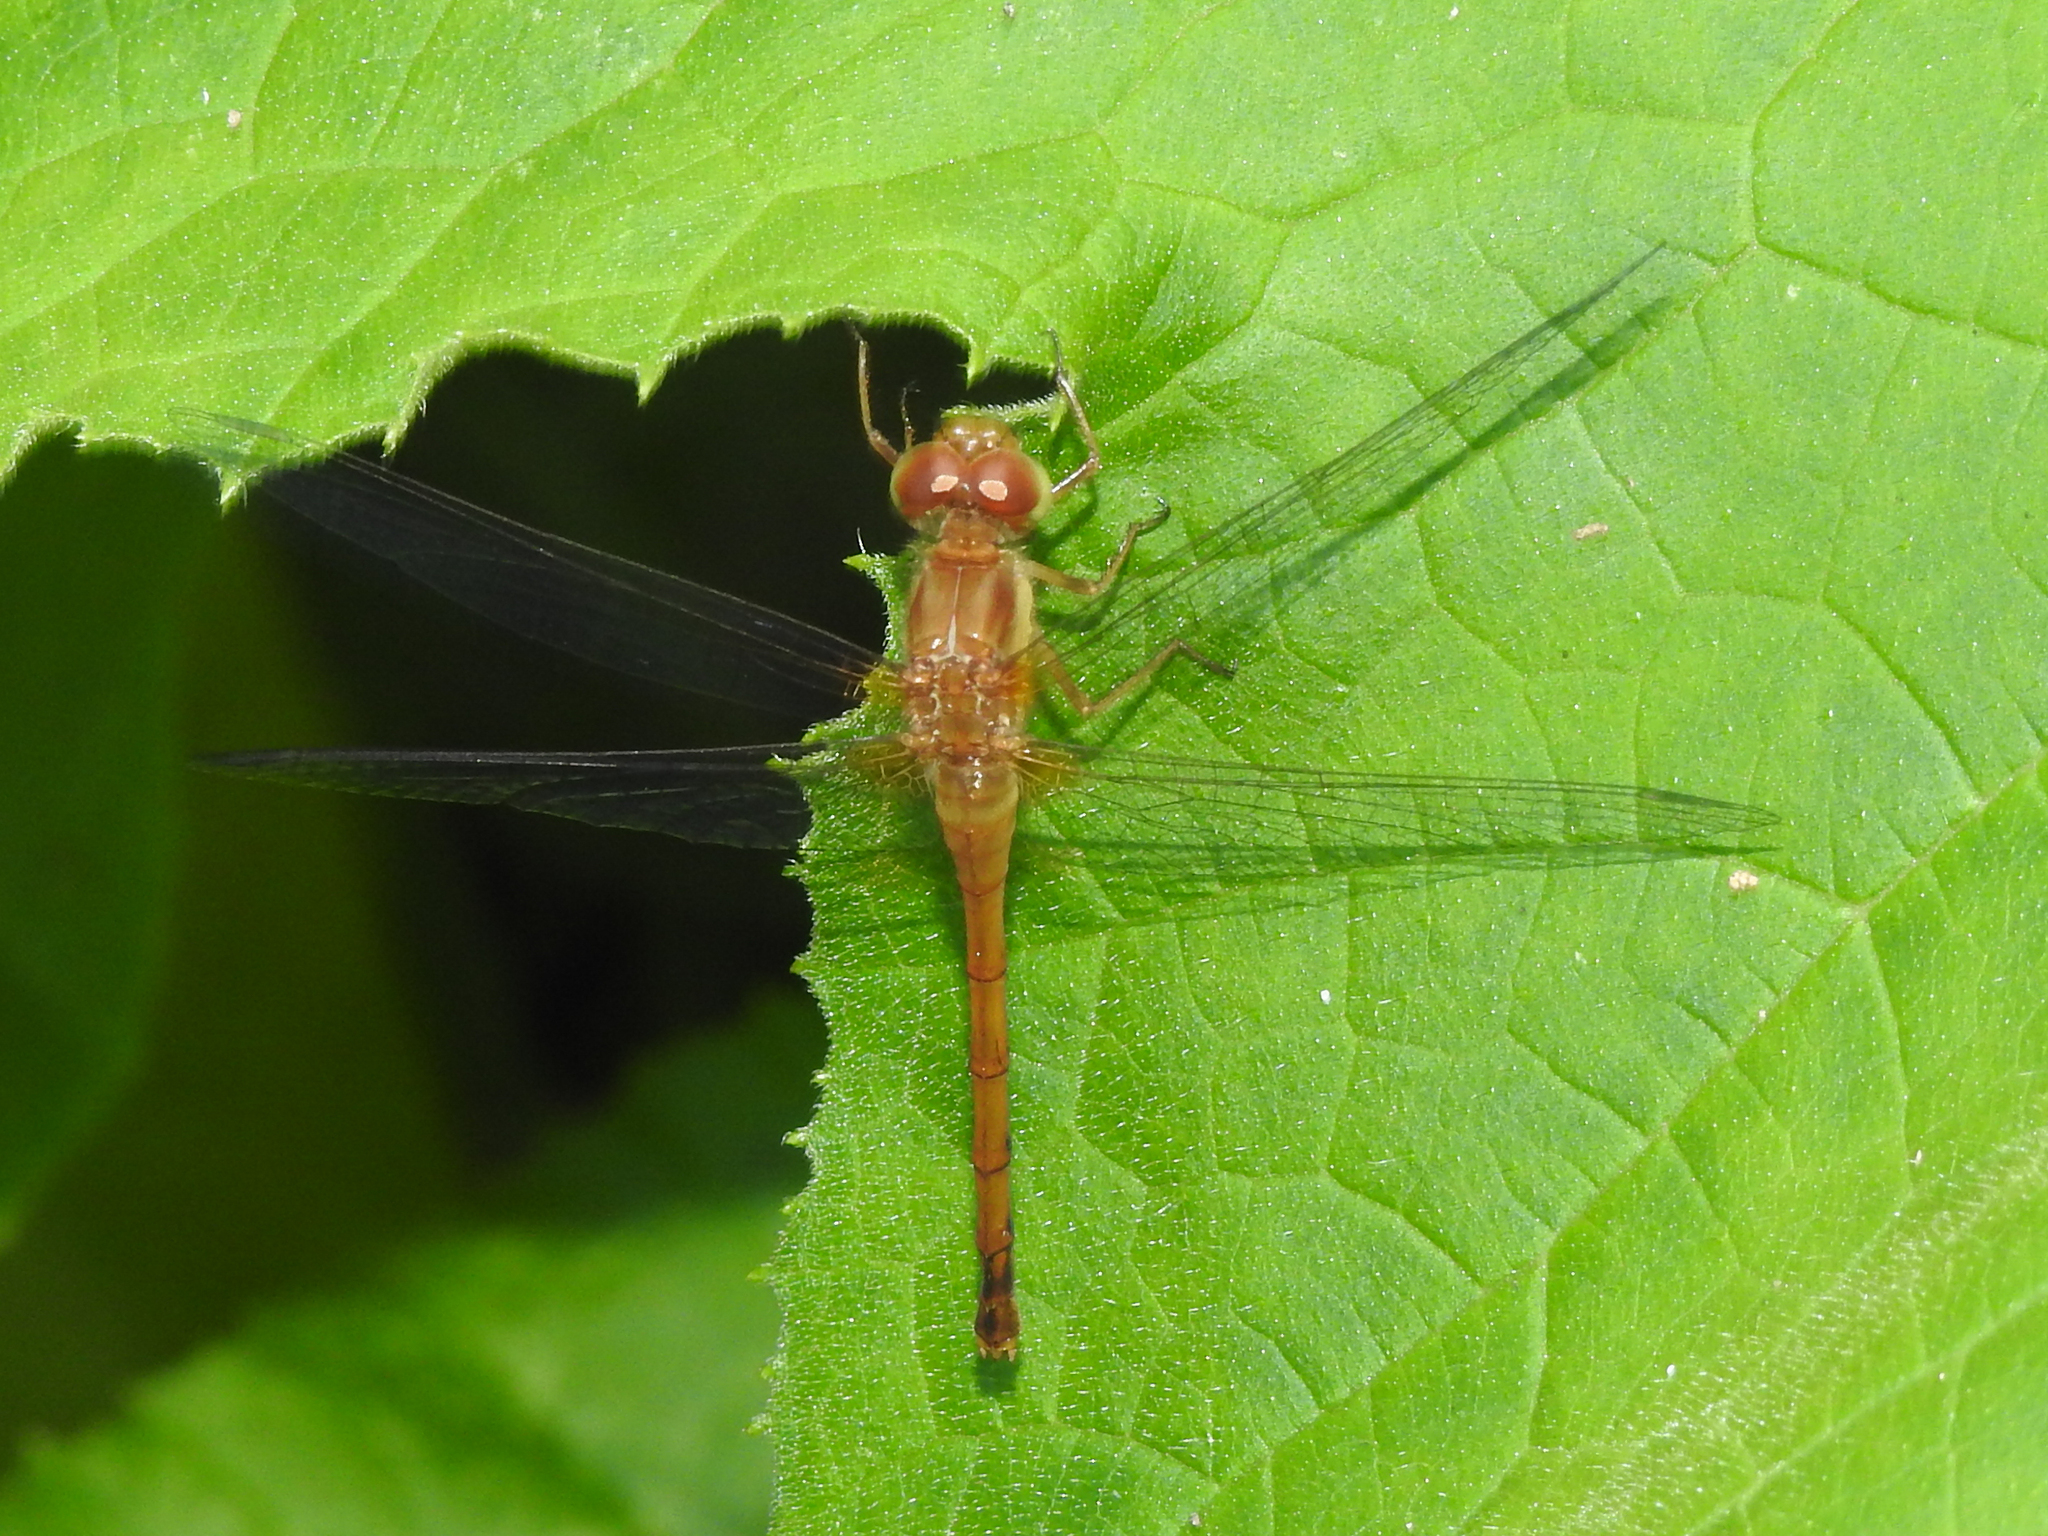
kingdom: Animalia
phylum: Arthropoda
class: Insecta
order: Odonata
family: Libellulidae
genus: Sympetrum
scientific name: Sympetrum vicinum
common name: Autumn meadowhawk
